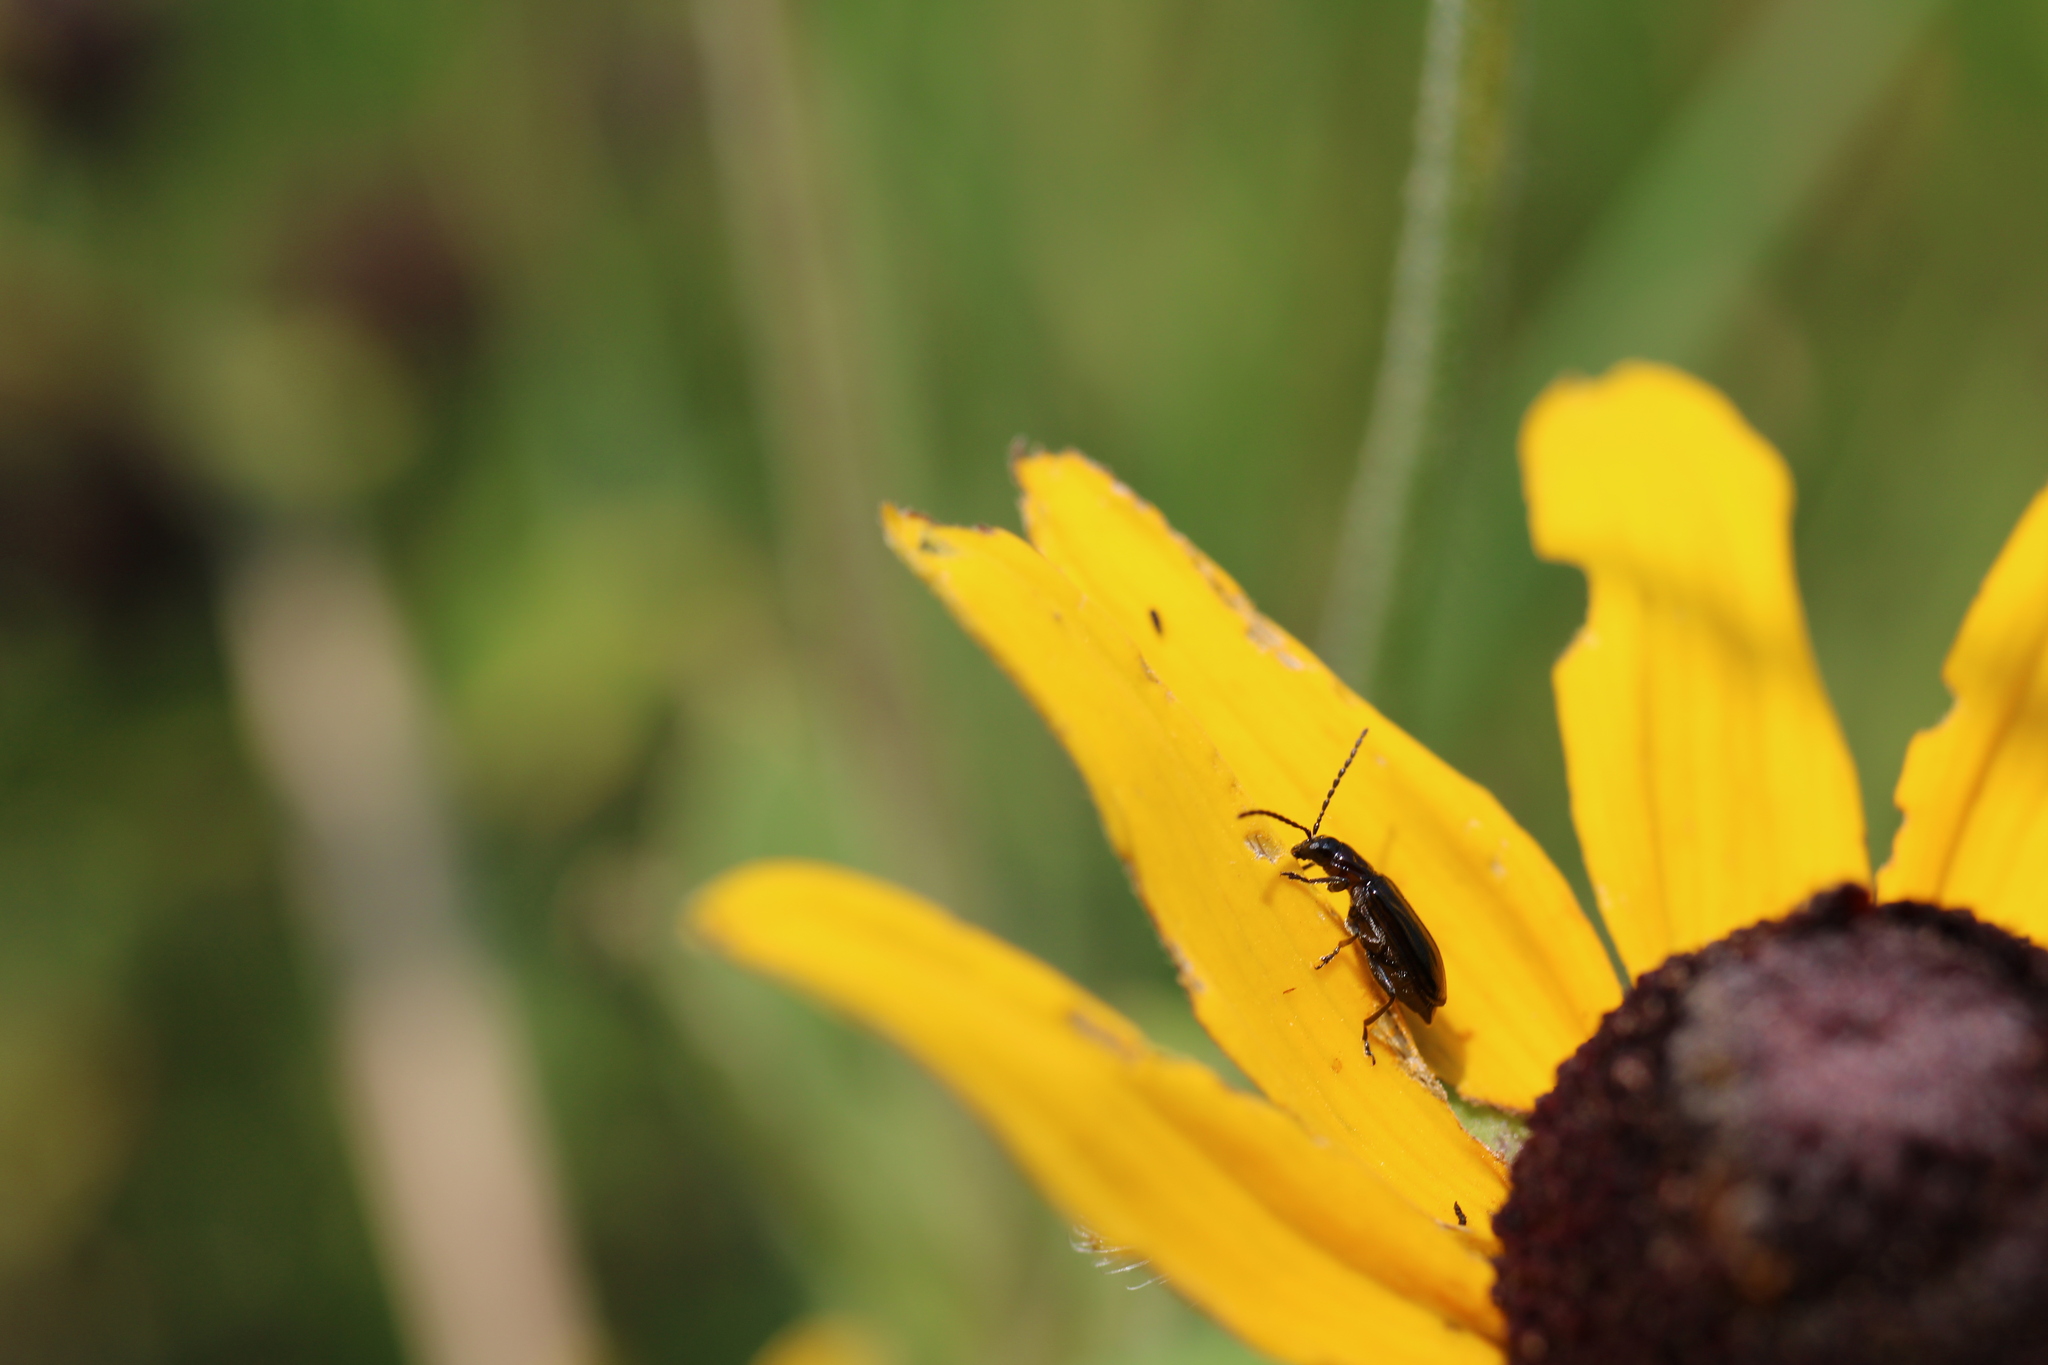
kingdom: Animalia
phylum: Arthropoda
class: Insecta
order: Coleoptera
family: Chrysomelidae
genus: Diabrotica
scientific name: Diabrotica cristata
